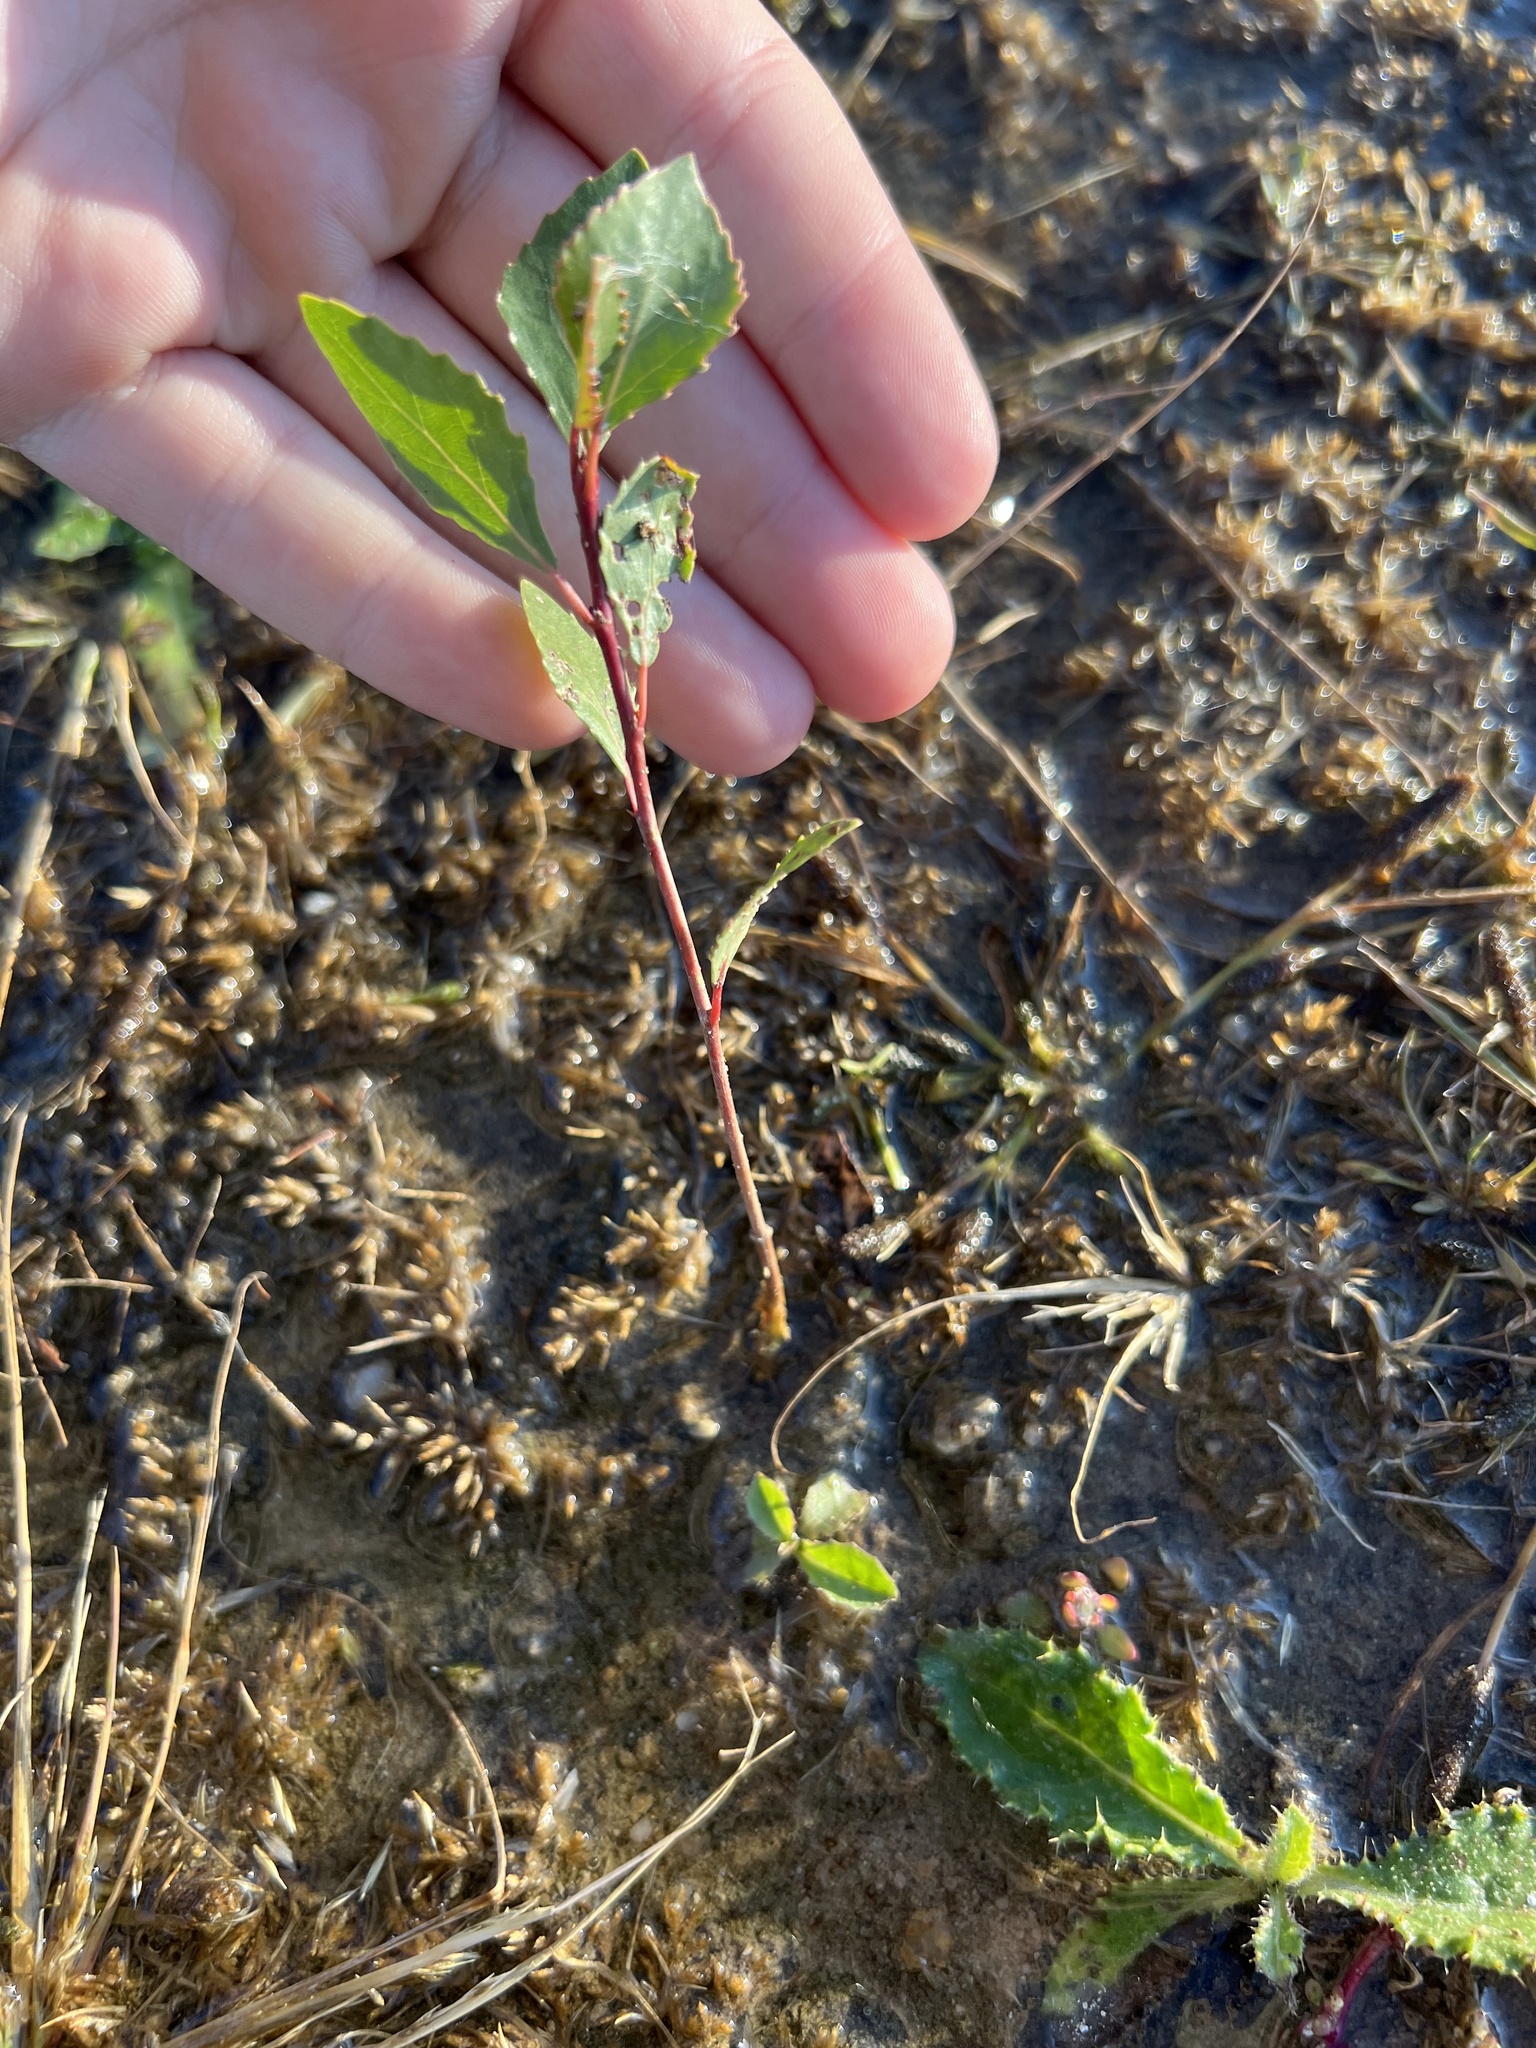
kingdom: Plantae
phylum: Tracheophyta
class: Magnoliopsida
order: Malpighiales
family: Salicaceae
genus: Populus
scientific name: Populus acuminata
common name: Lance-leaved cottonwood
